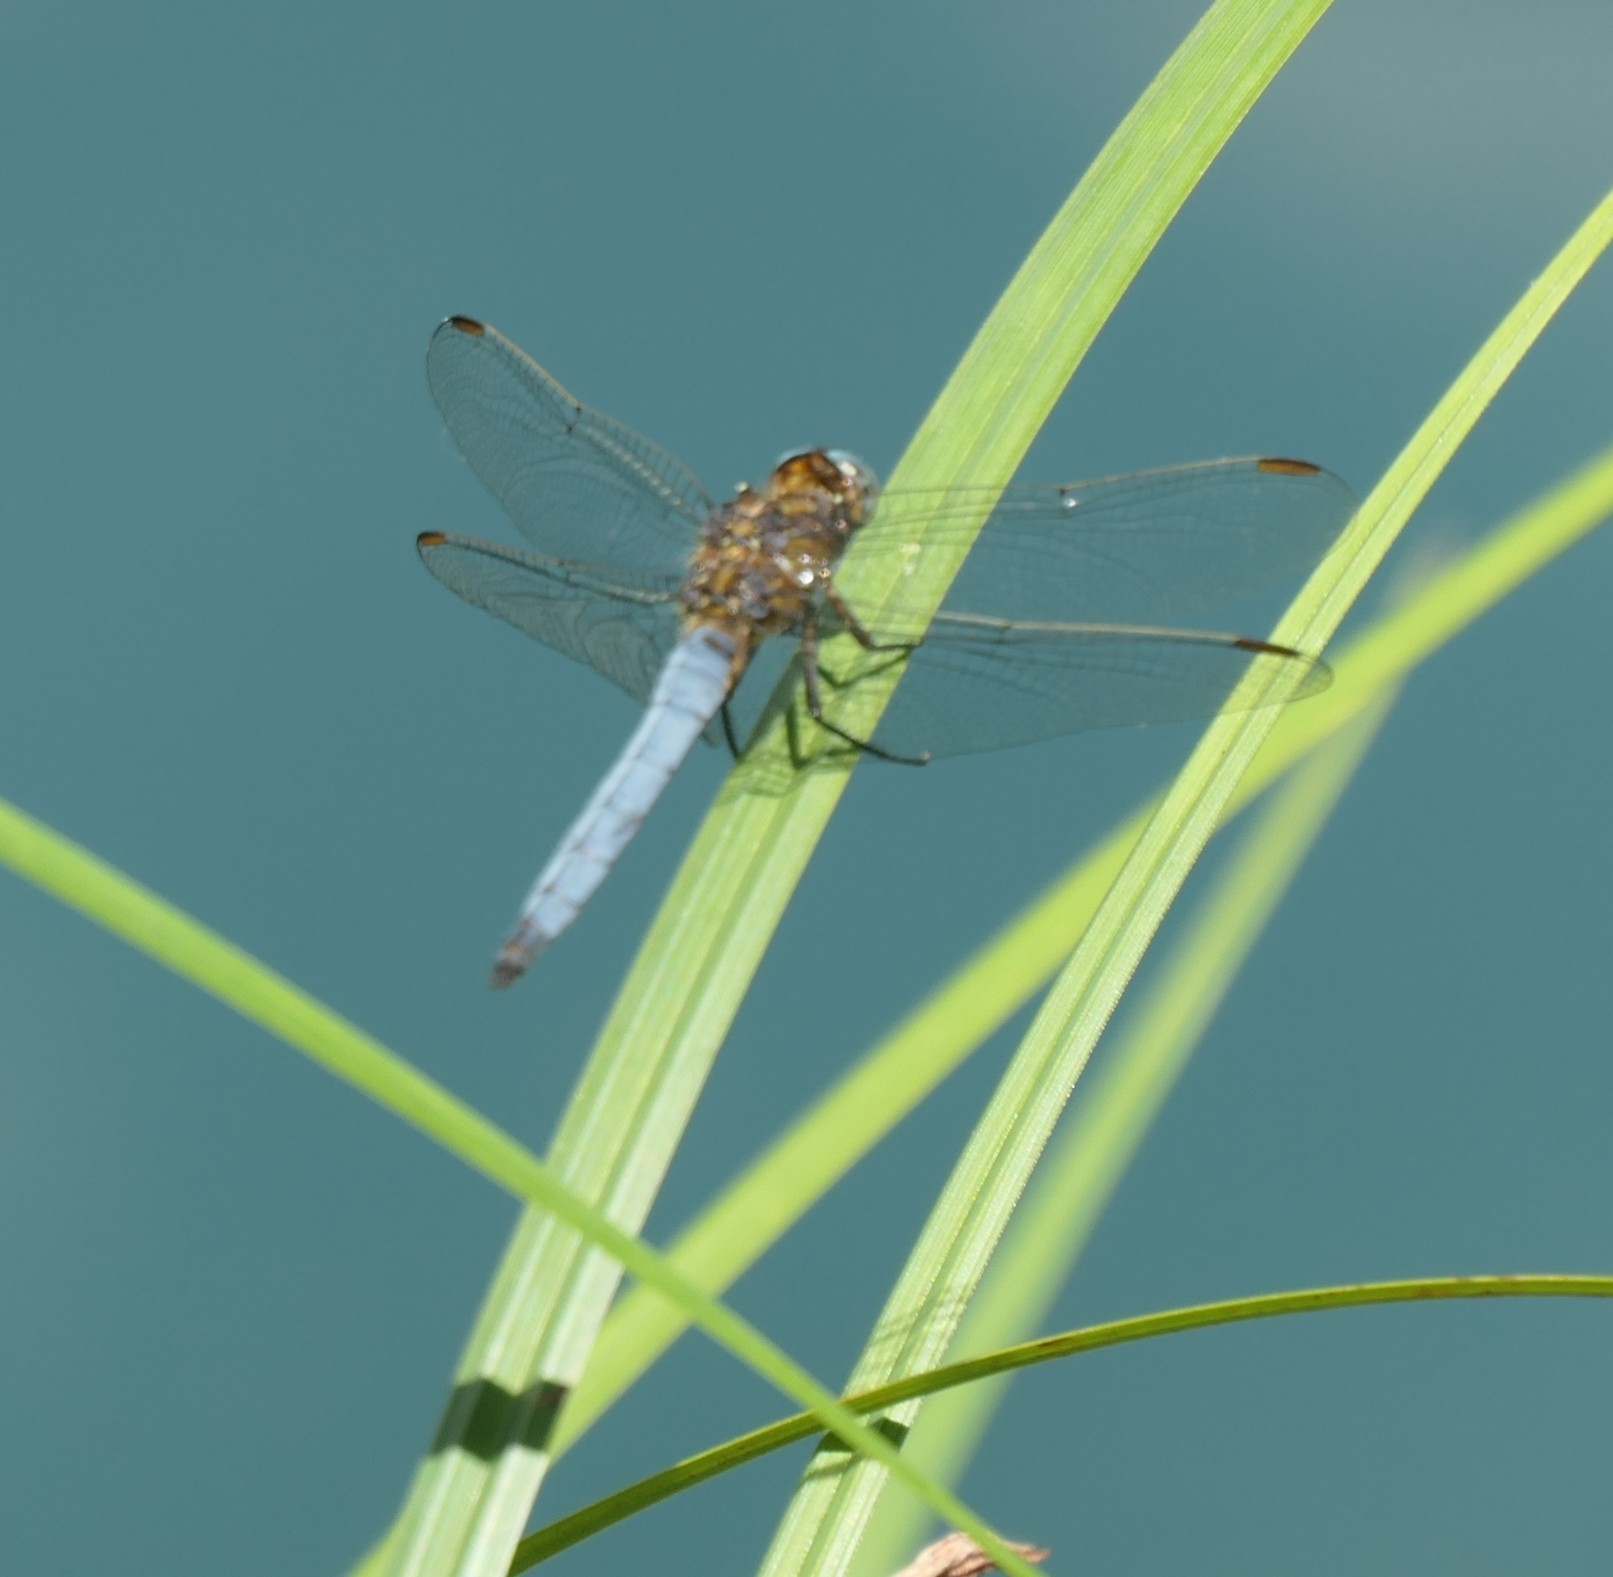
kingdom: Animalia
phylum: Arthropoda
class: Insecta
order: Odonata
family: Libellulidae
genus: Orthetrum
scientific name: Orthetrum coerulescens
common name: Keeled skimmer
